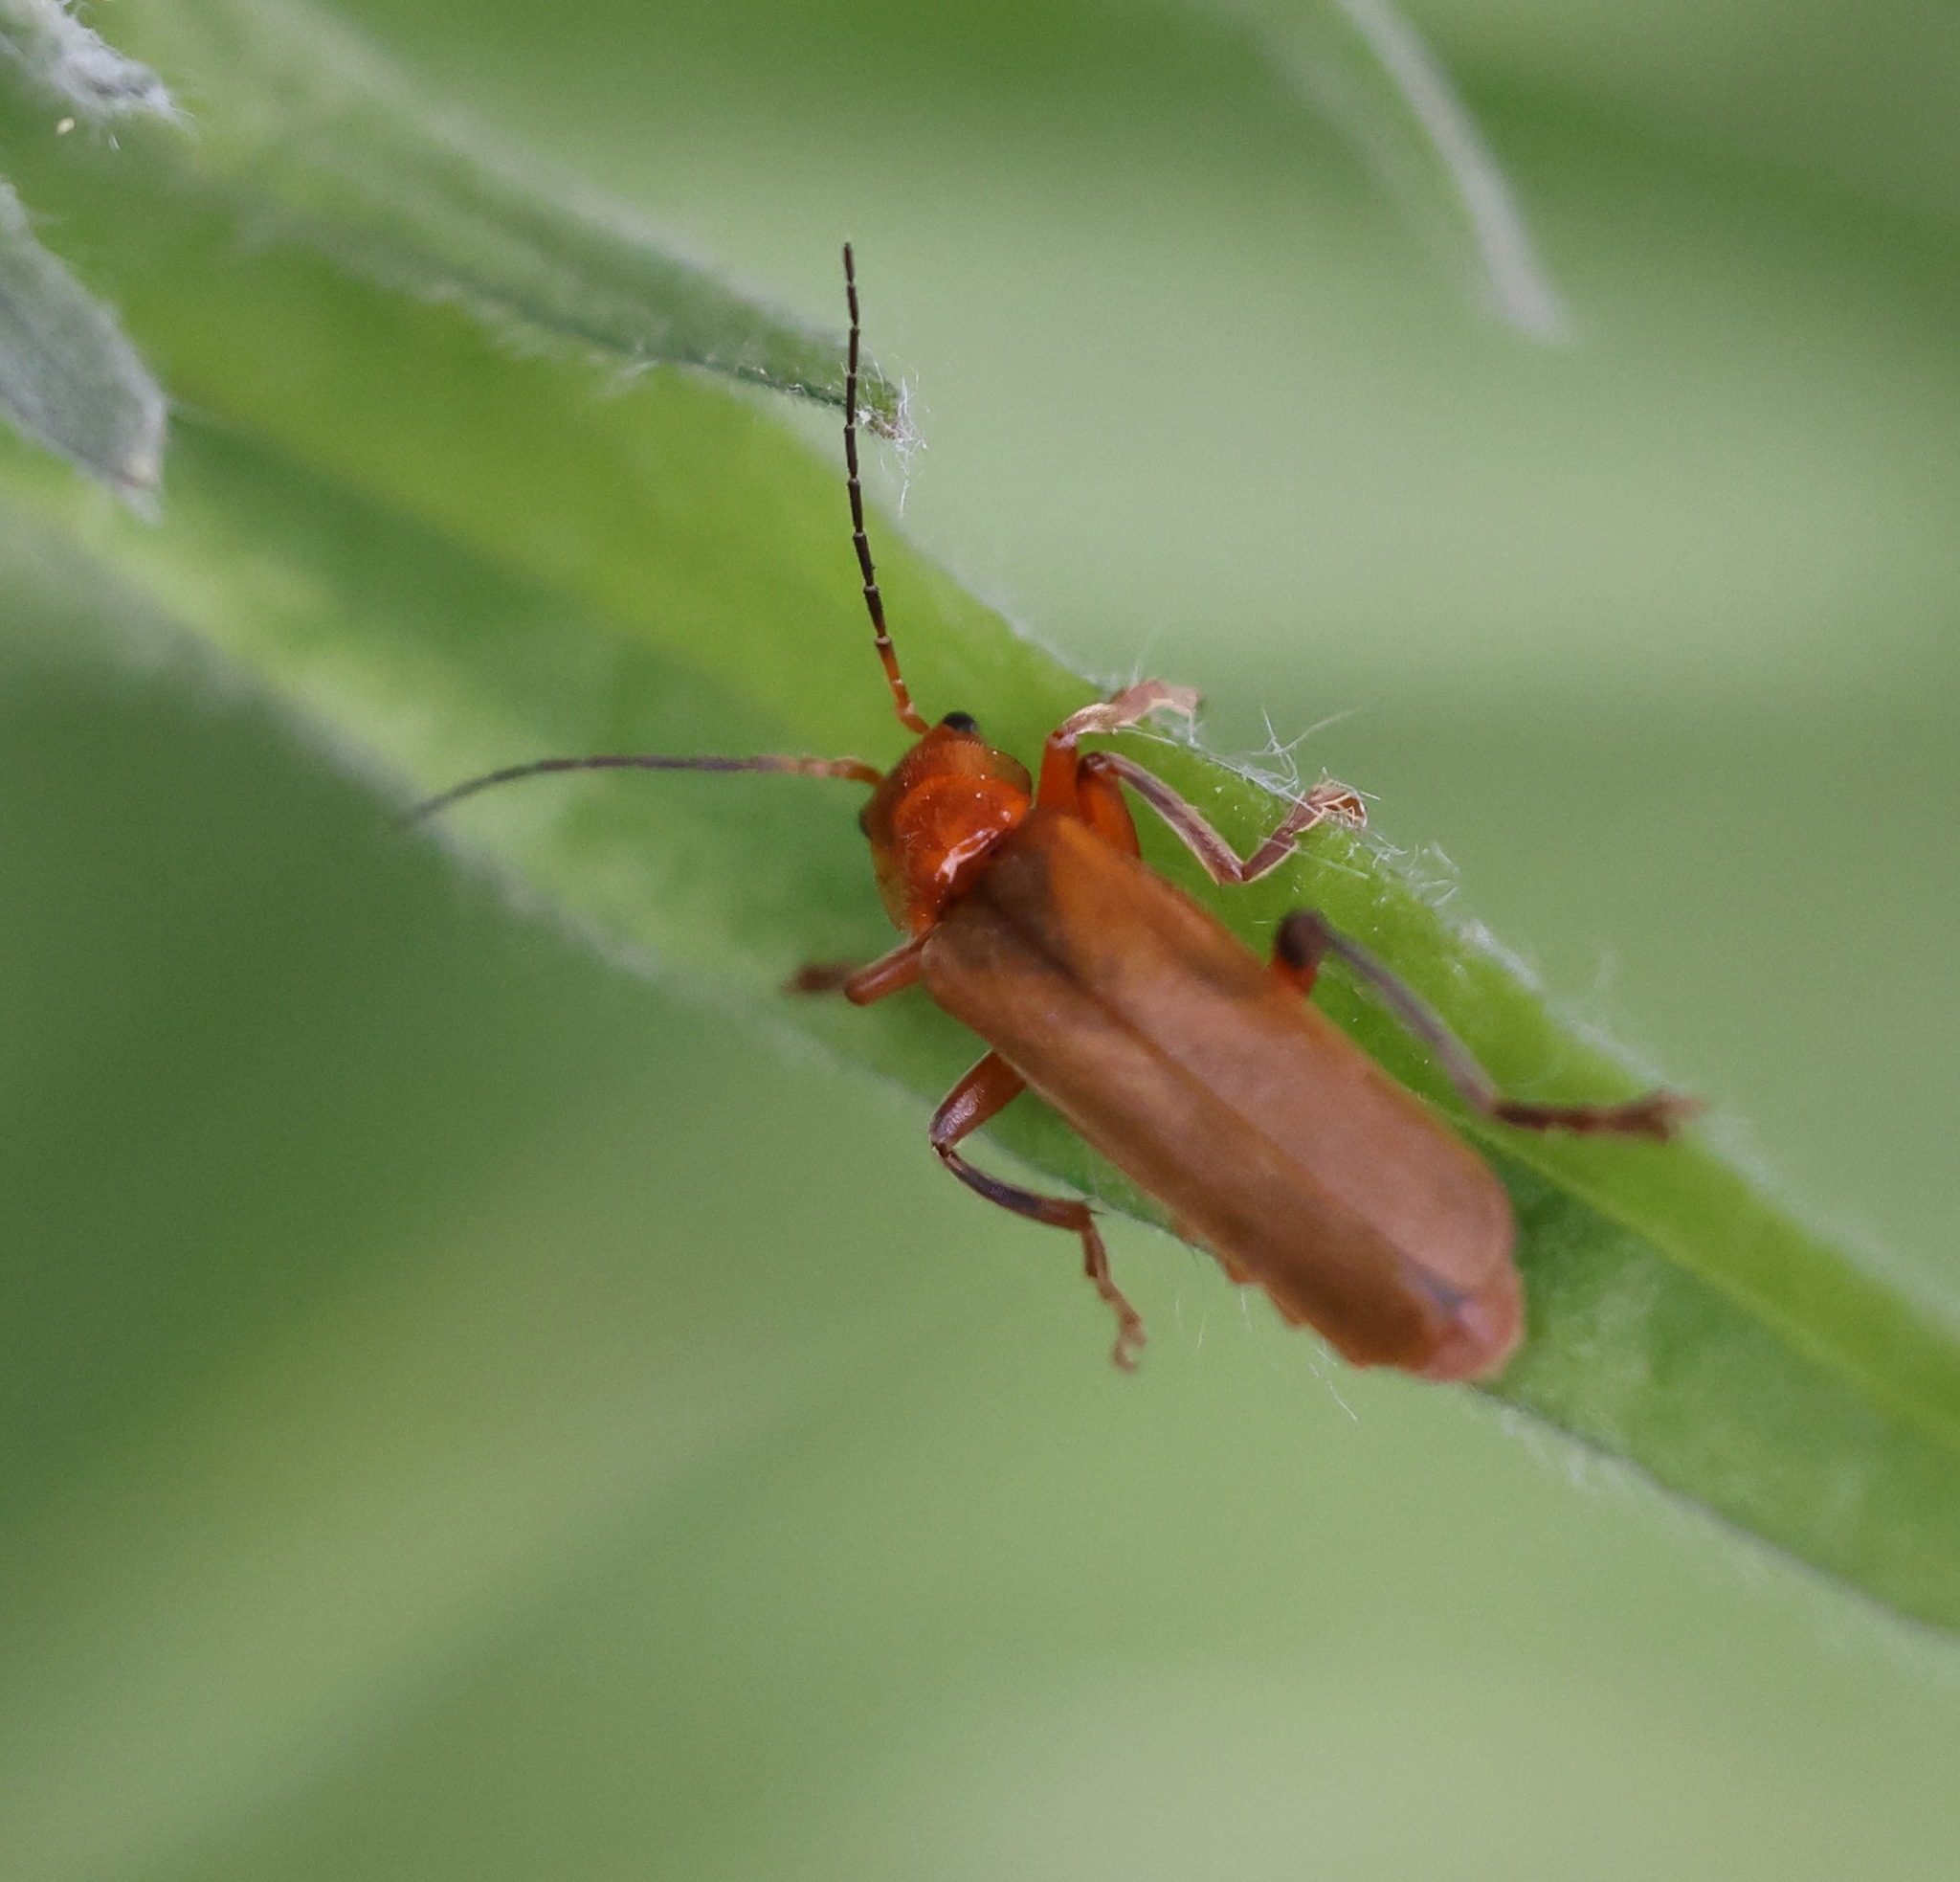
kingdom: Animalia
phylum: Arthropoda
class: Insecta
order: Coleoptera
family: Cantharidae
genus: Cantharis
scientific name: Cantharis livida
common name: Livid soldier beetle
